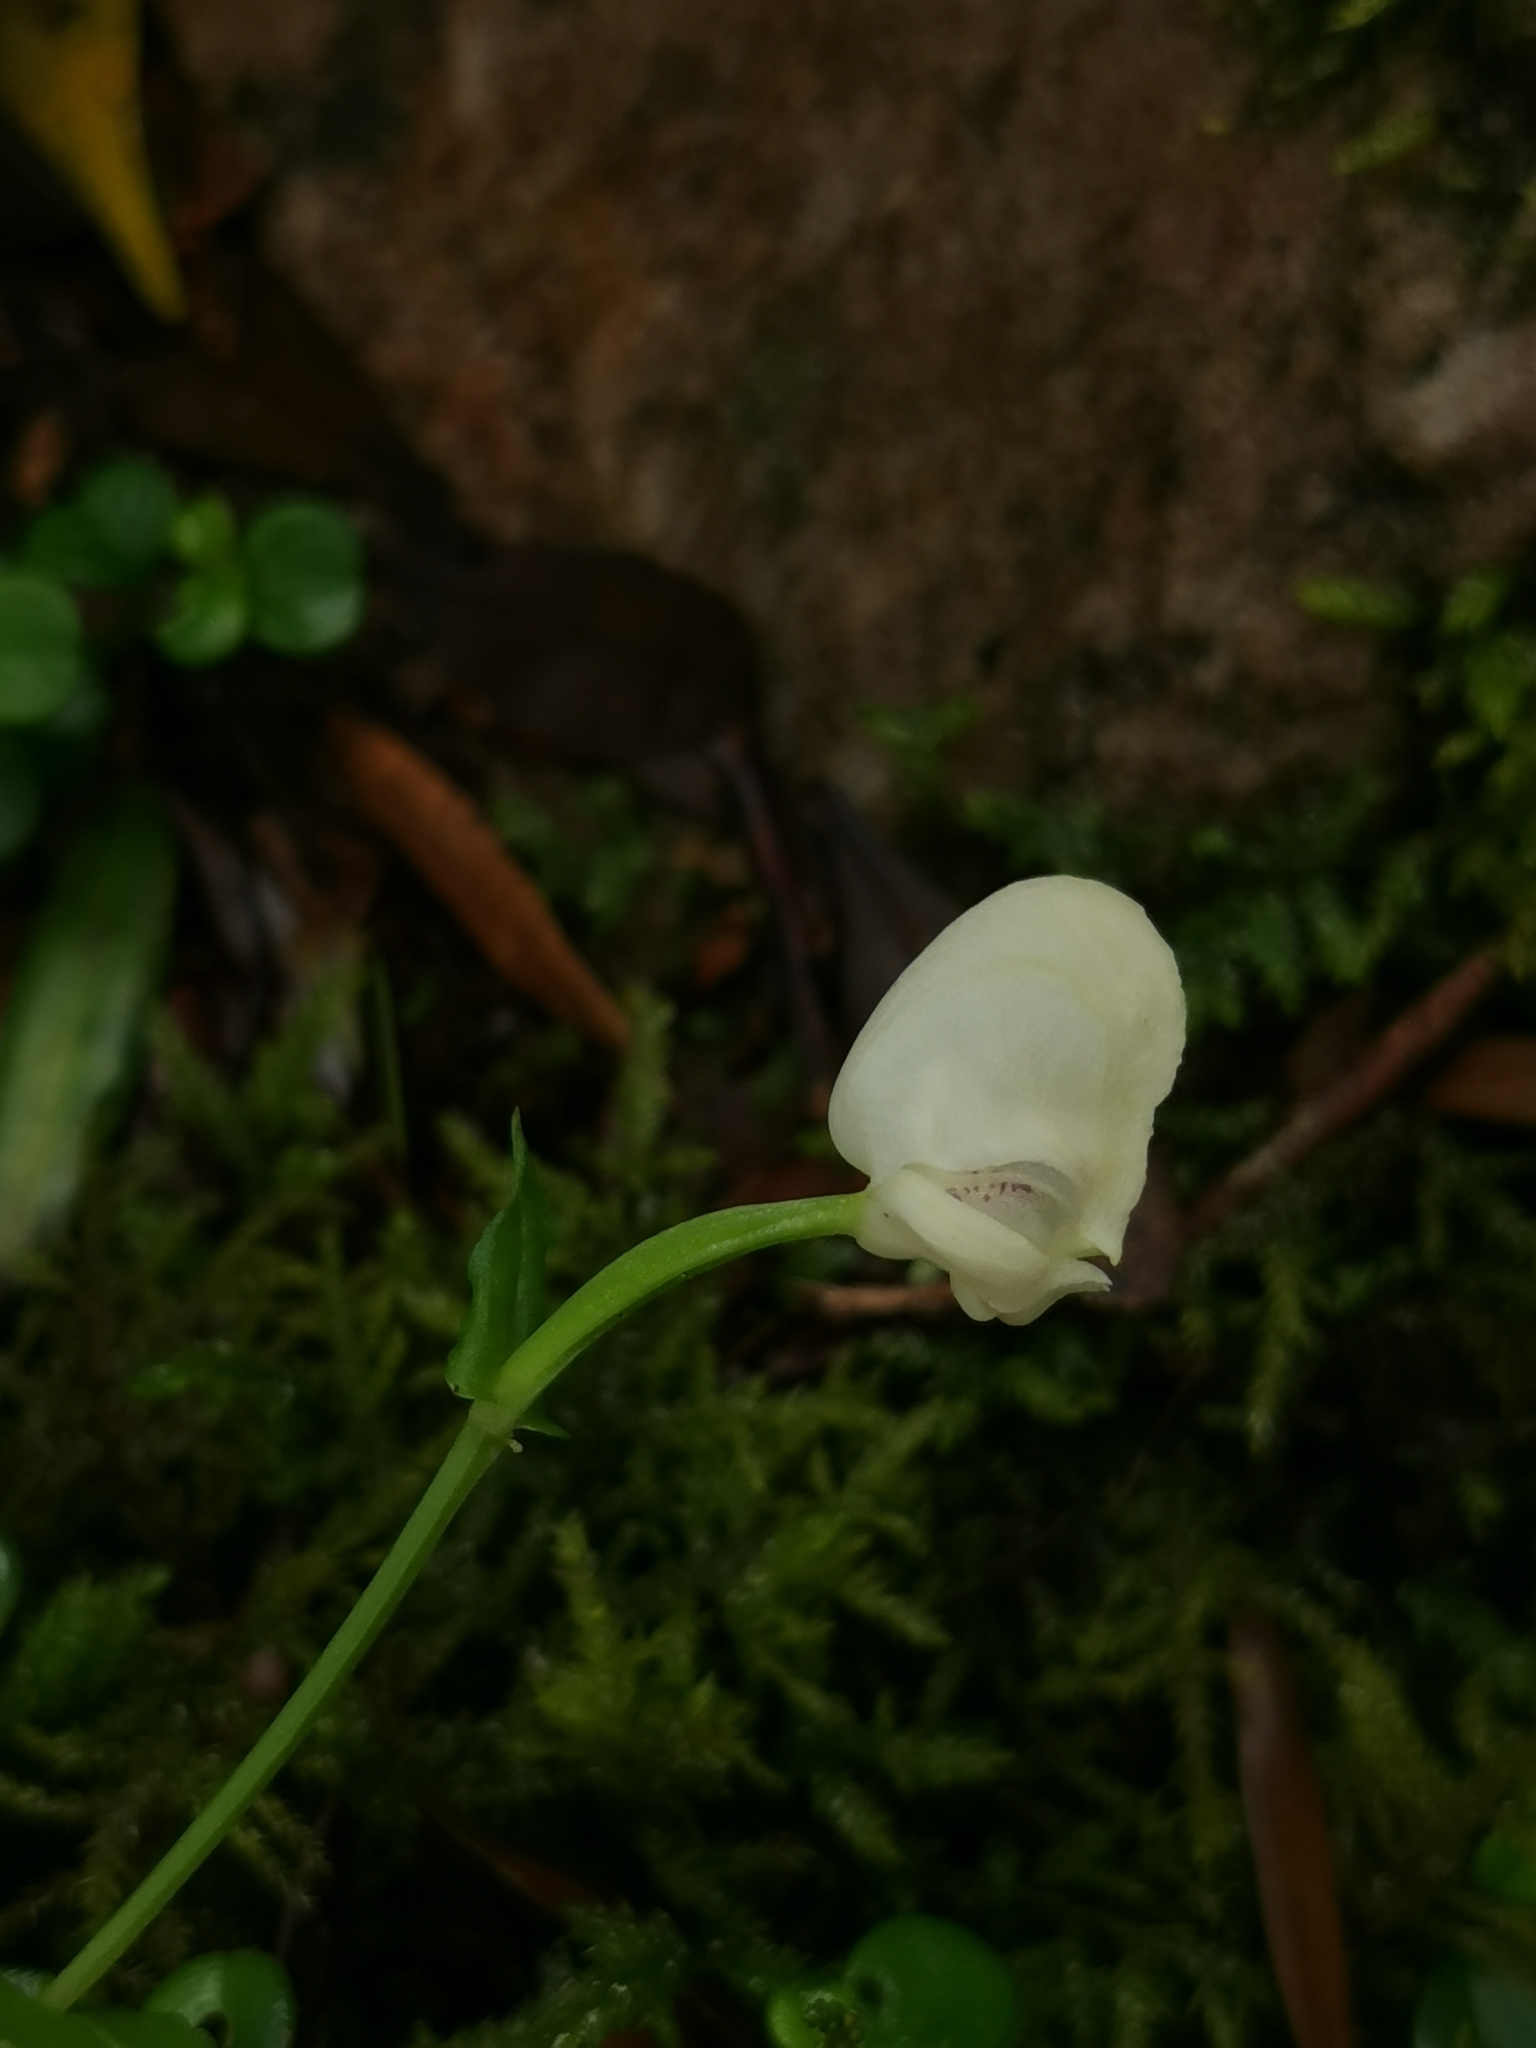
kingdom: Plantae
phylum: Tracheophyta
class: Liliopsida
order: Asparagales
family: Orchidaceae
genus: Disperis
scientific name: Disperis fanniniae
